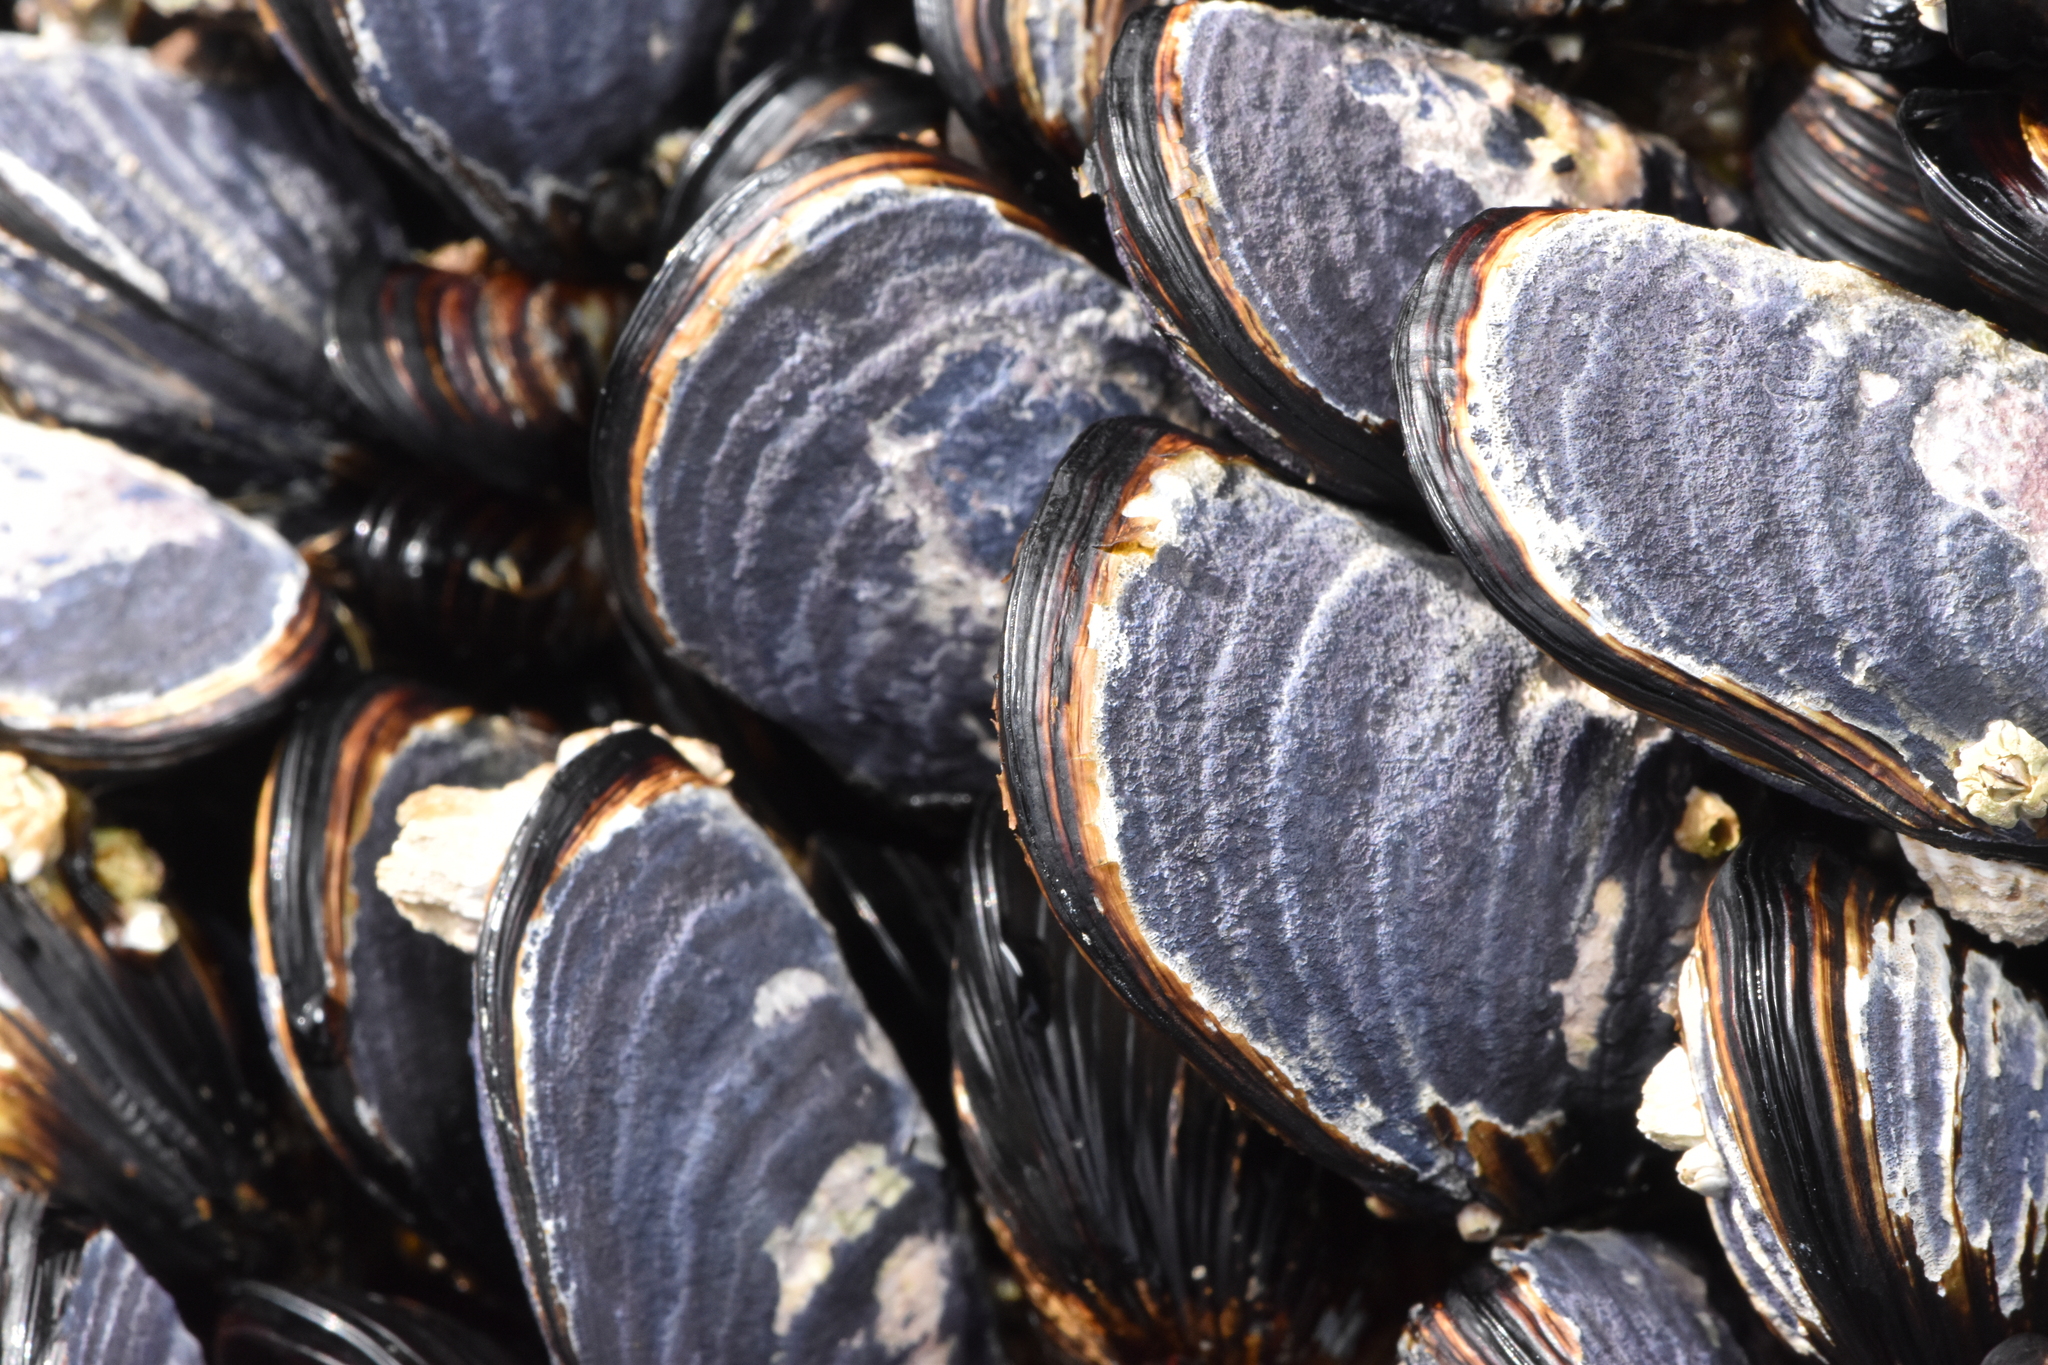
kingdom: Animalia
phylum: Mollusca
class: Bivalvia
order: Mytilida
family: Mytilidae
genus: Mytilus
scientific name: Mytilus californianus
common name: California mussel
